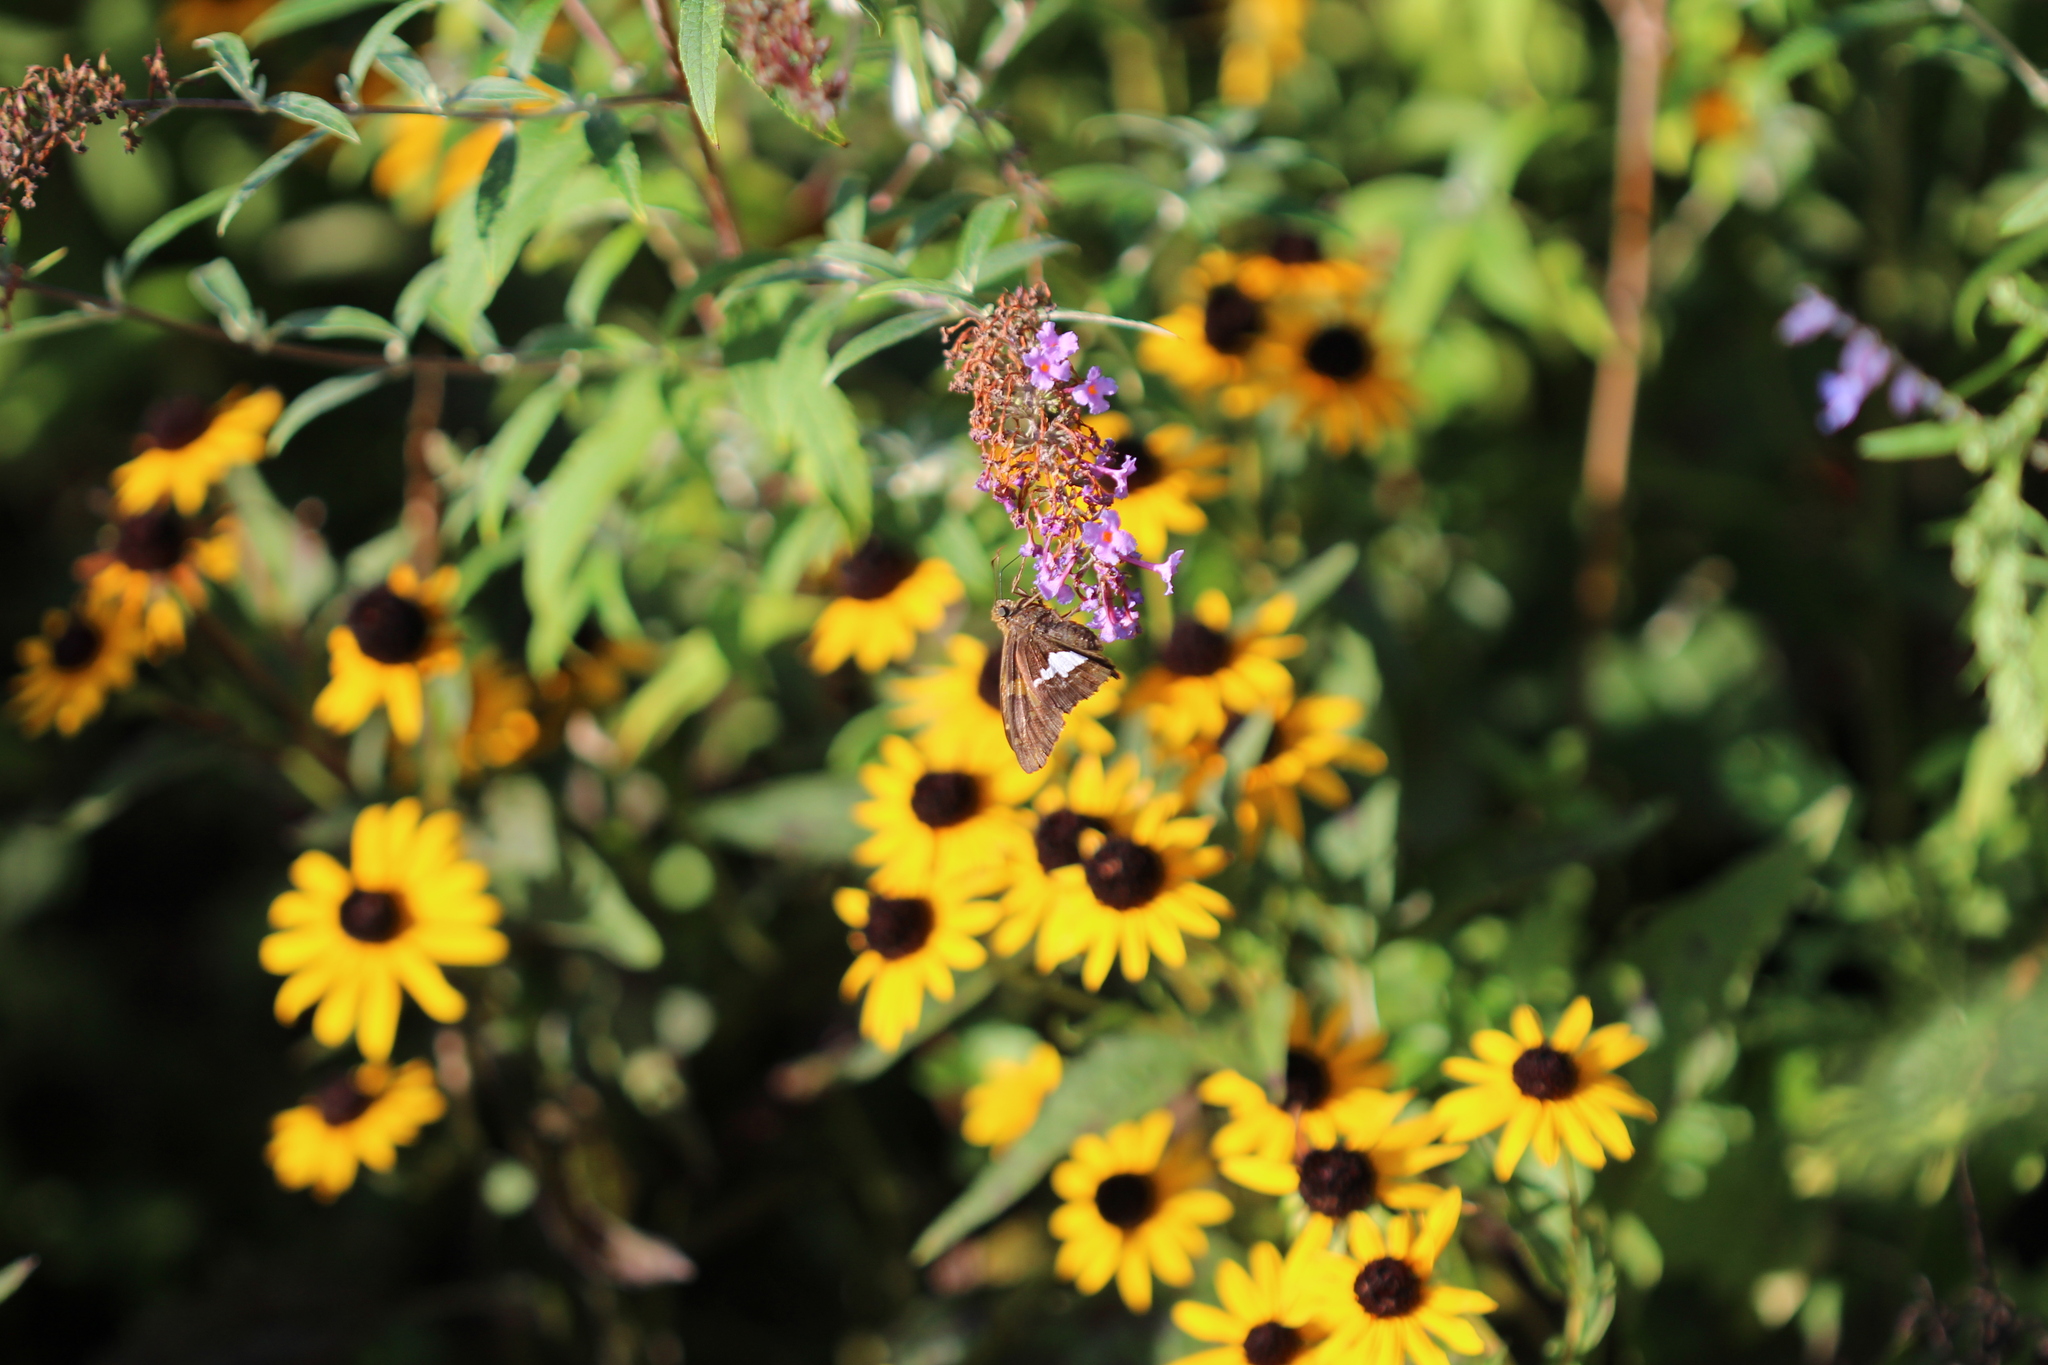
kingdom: Animalia
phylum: Arthropoda
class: Insecta
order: Lepidoptera
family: Hesperiidae
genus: Epargyreus
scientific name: Epargyreus clarus
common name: Silver-spotted skipper
